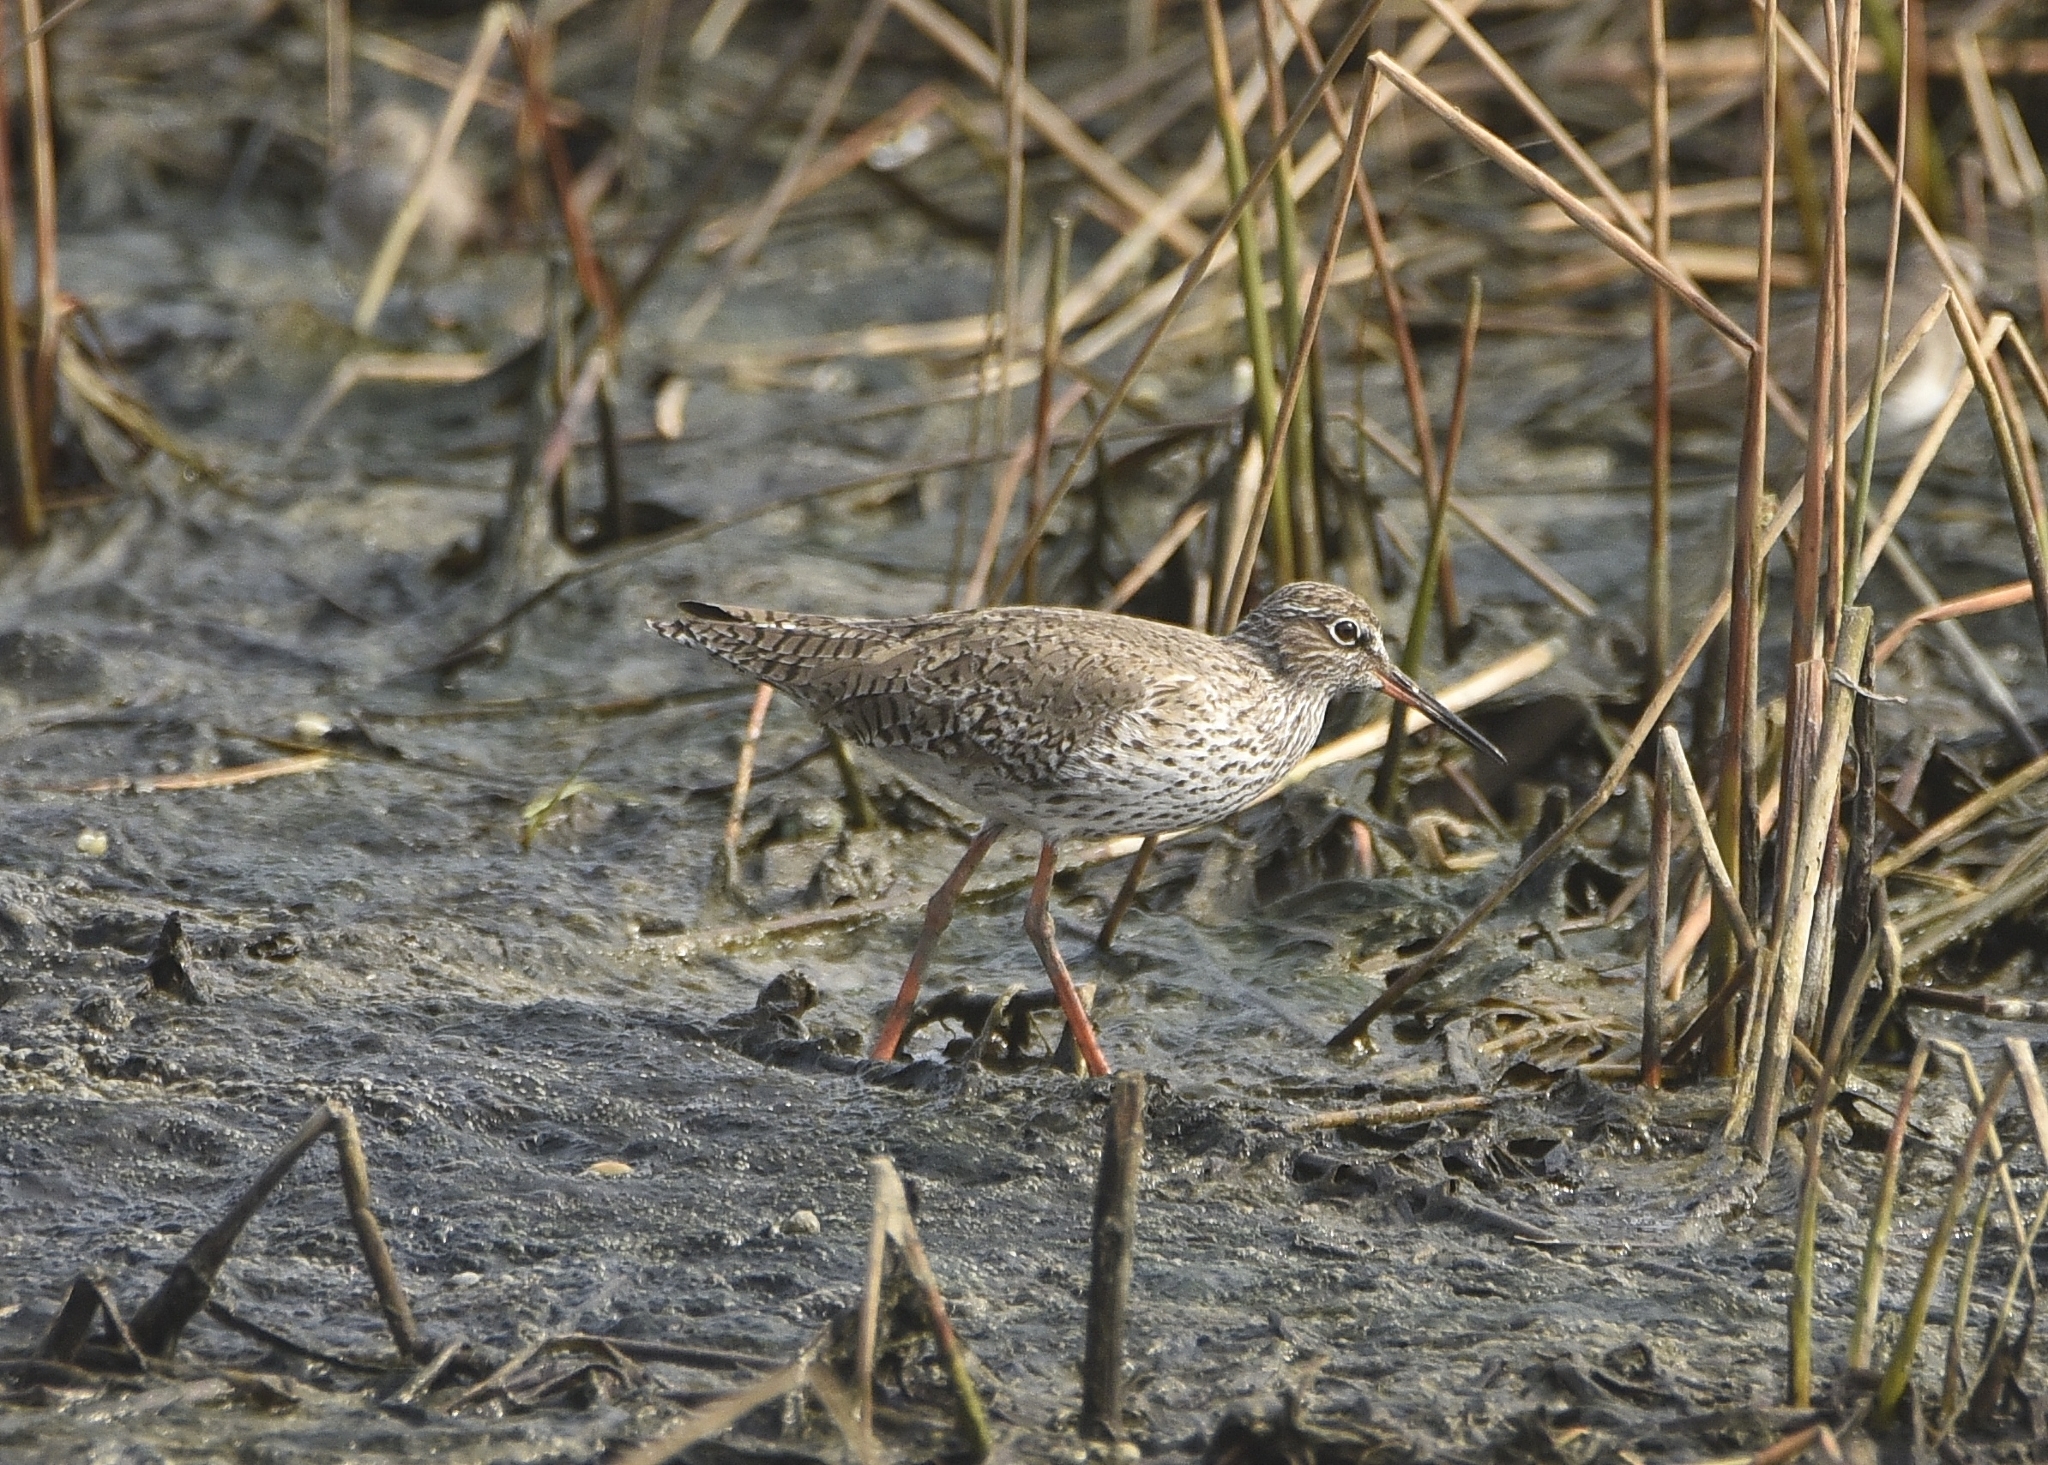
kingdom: Animalia
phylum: Chordata
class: Aves
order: Charadriiformes
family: Scolopacidae
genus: Tringa
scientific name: Tringa totanus
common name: Common redshank
